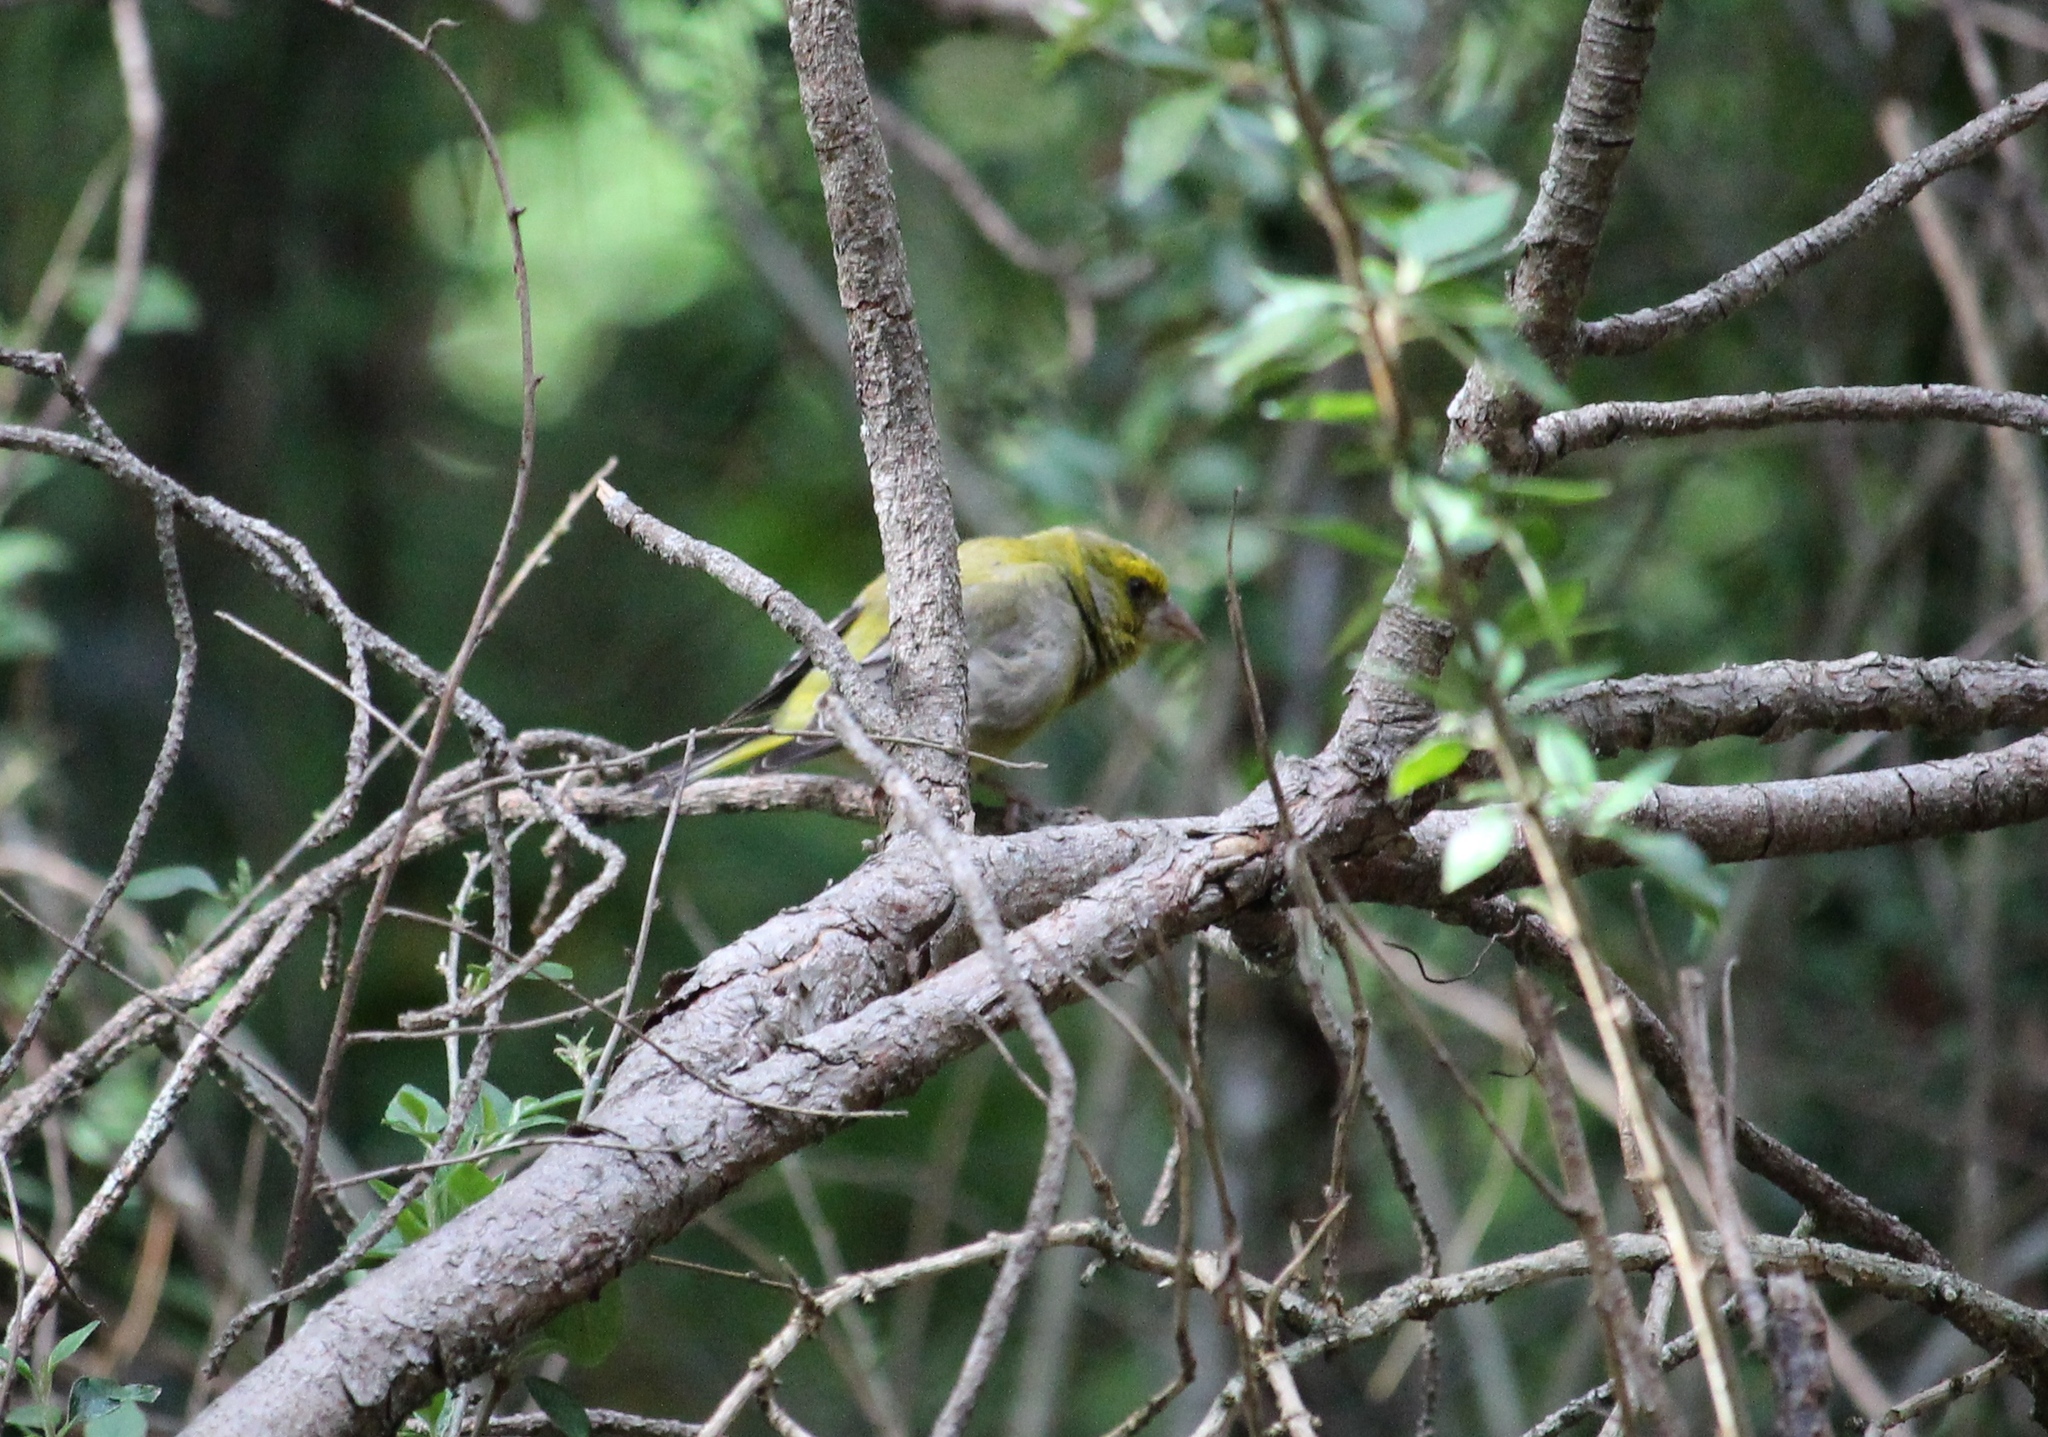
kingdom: Plantae
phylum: Tracheophyta
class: Liliopsida
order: Poales
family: Poaceae
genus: Chloris
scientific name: Chloris chloris
